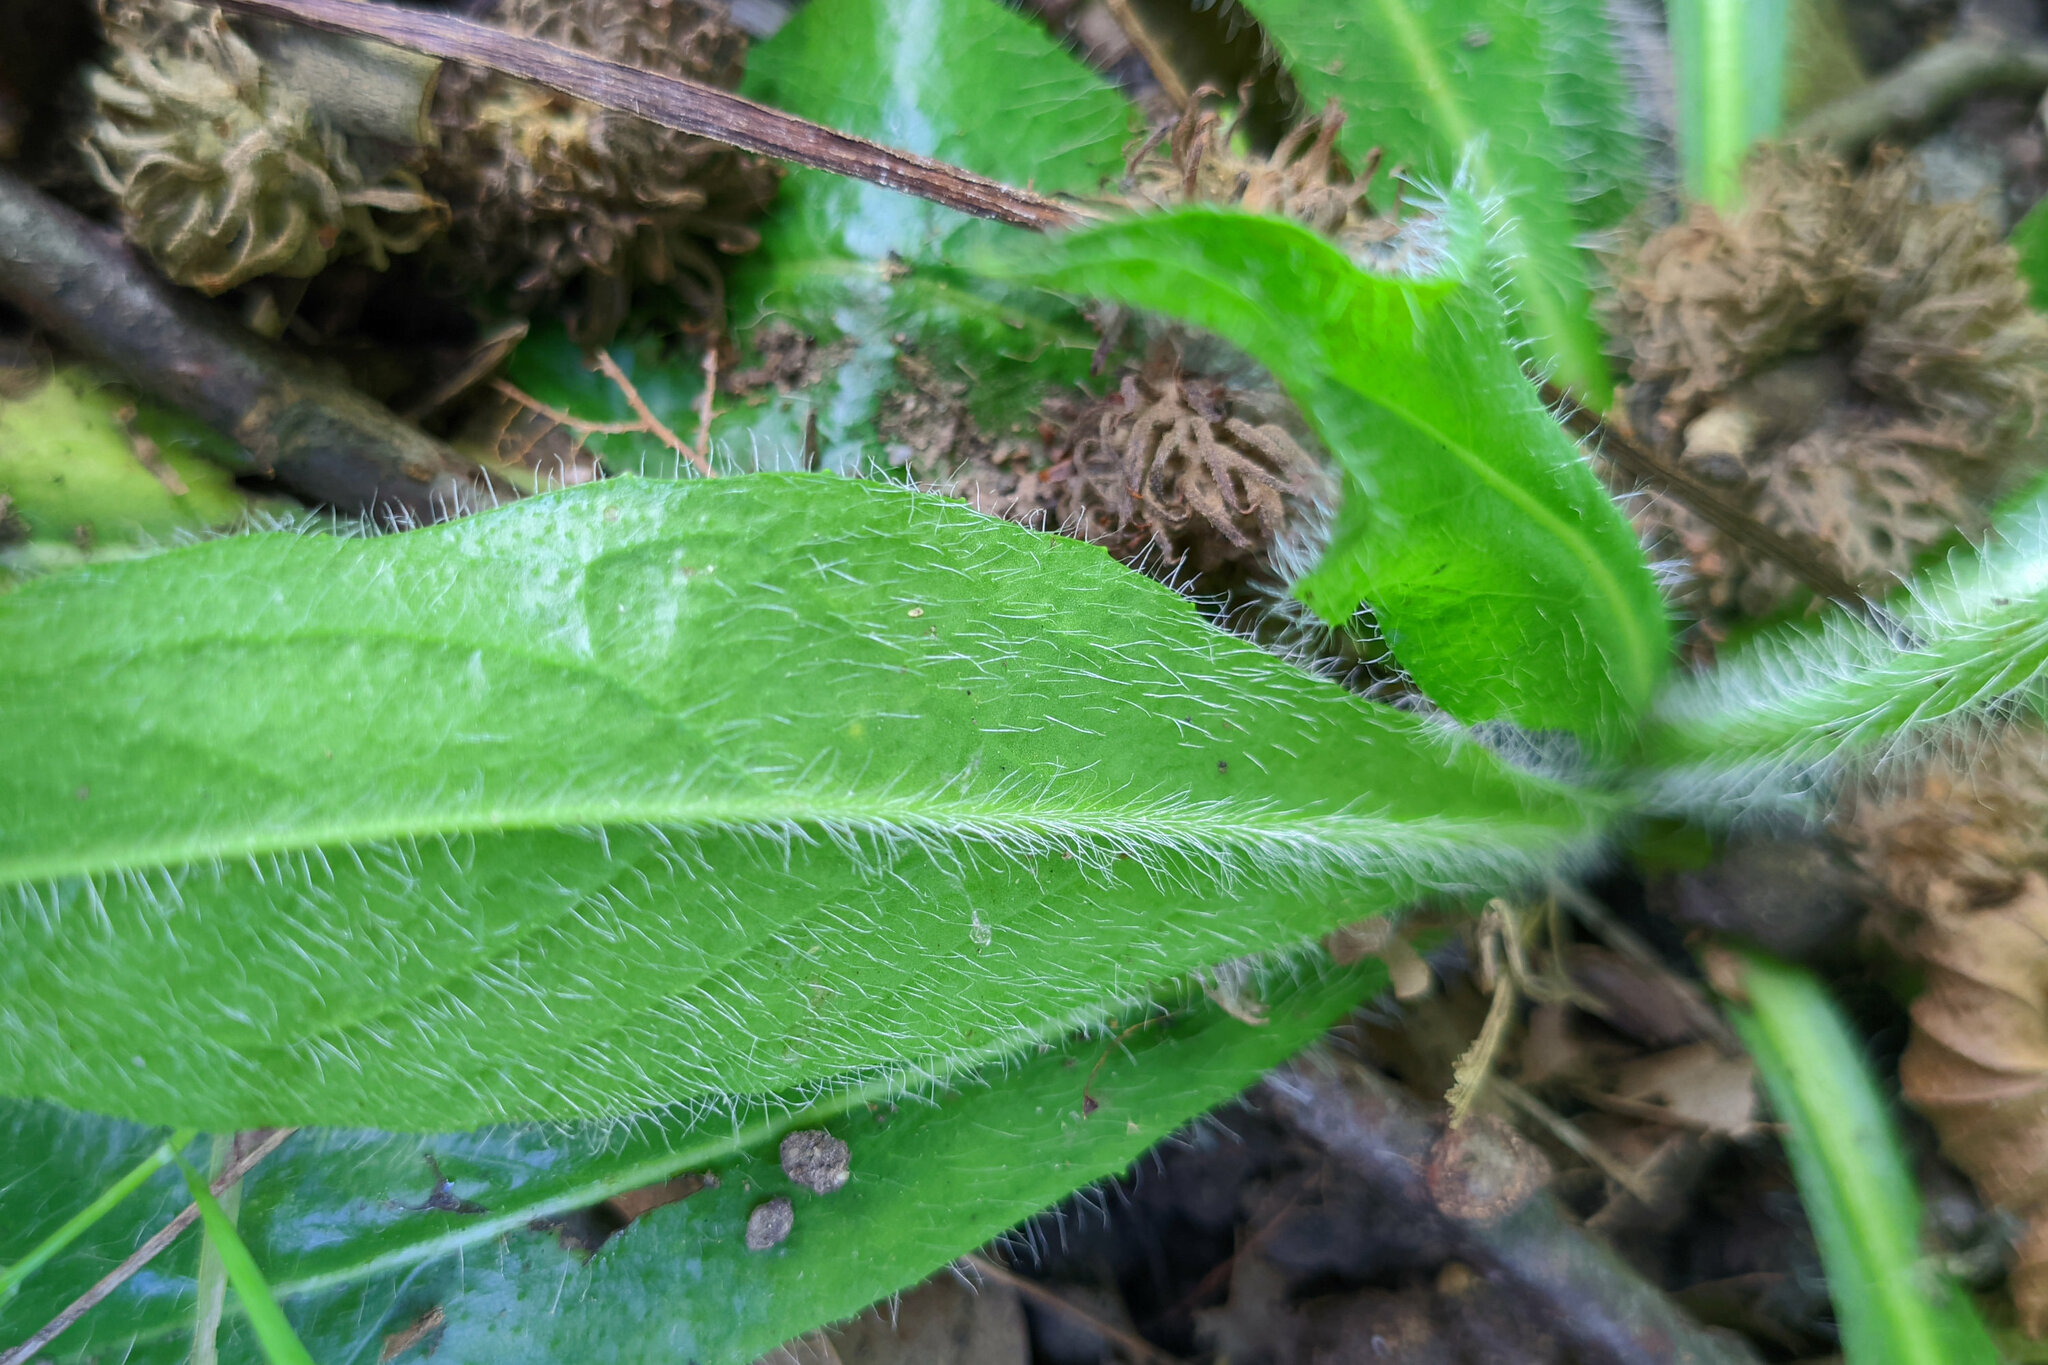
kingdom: Plantae
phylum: Tracheophyta
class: Magnoliopsida
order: Asterales
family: Asteraceae
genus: Pilosella
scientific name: Pilosella aurantiaca
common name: Fox-and-cubs
